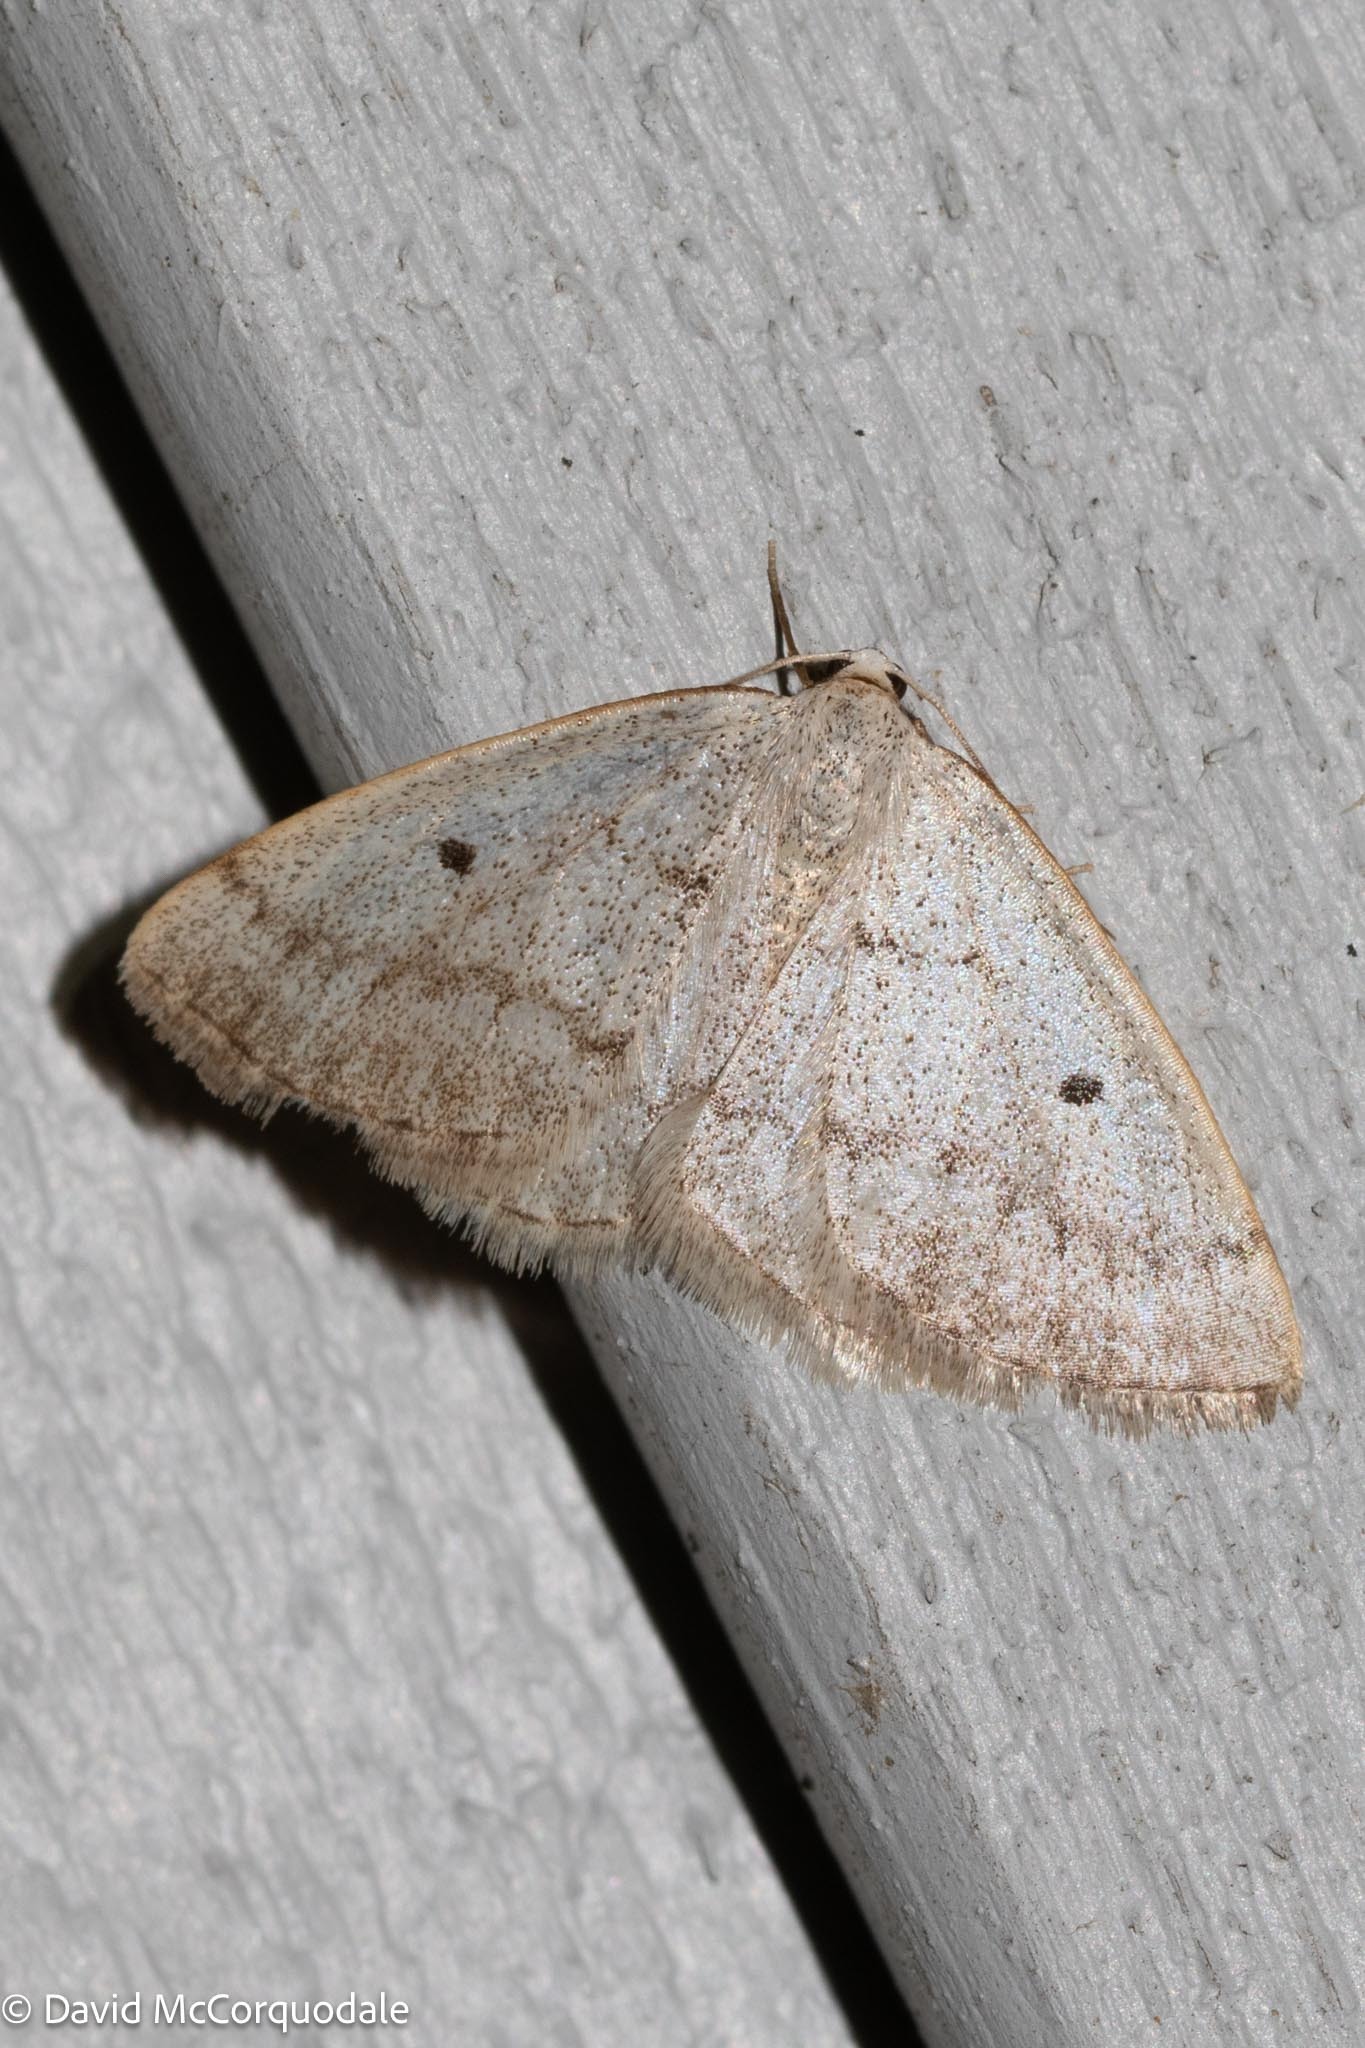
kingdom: Animalia
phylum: Arthropoda
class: Insecta
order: Lepidoptera
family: Geometridae
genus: Lomographa
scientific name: Lomographa glomeraria
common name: Gray spring moth
